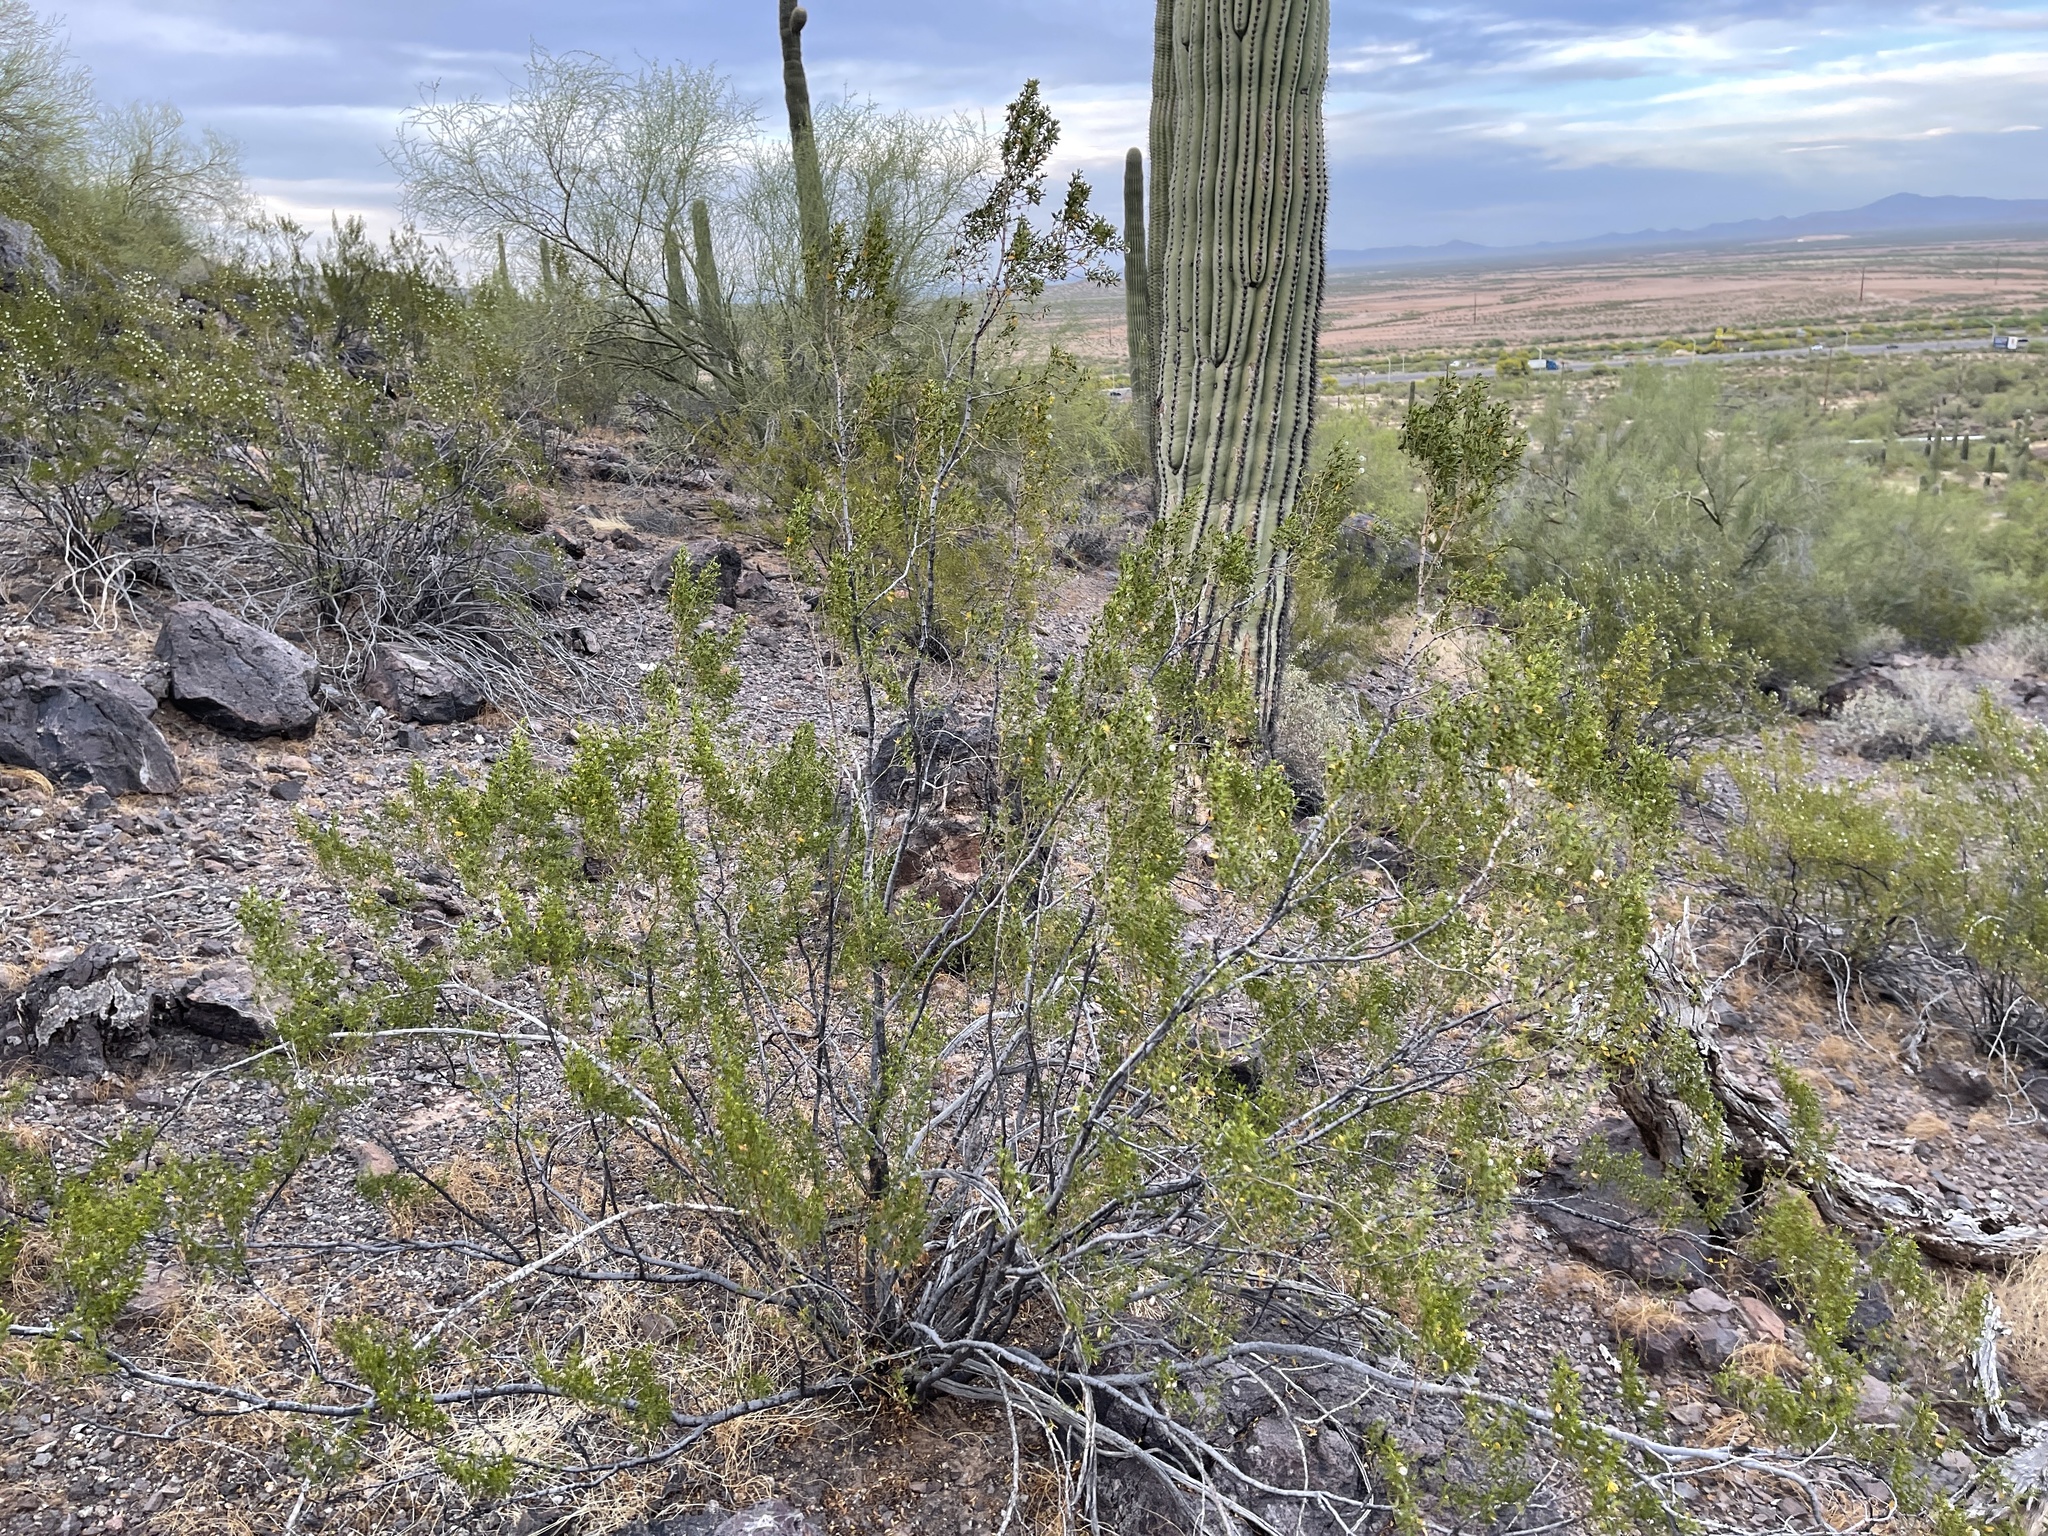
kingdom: Plantae
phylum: Tracheophyta
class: Magnoliopsida
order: Zygophyllales
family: Zygophyllaceae
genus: Larrea
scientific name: Larrea tridentata
